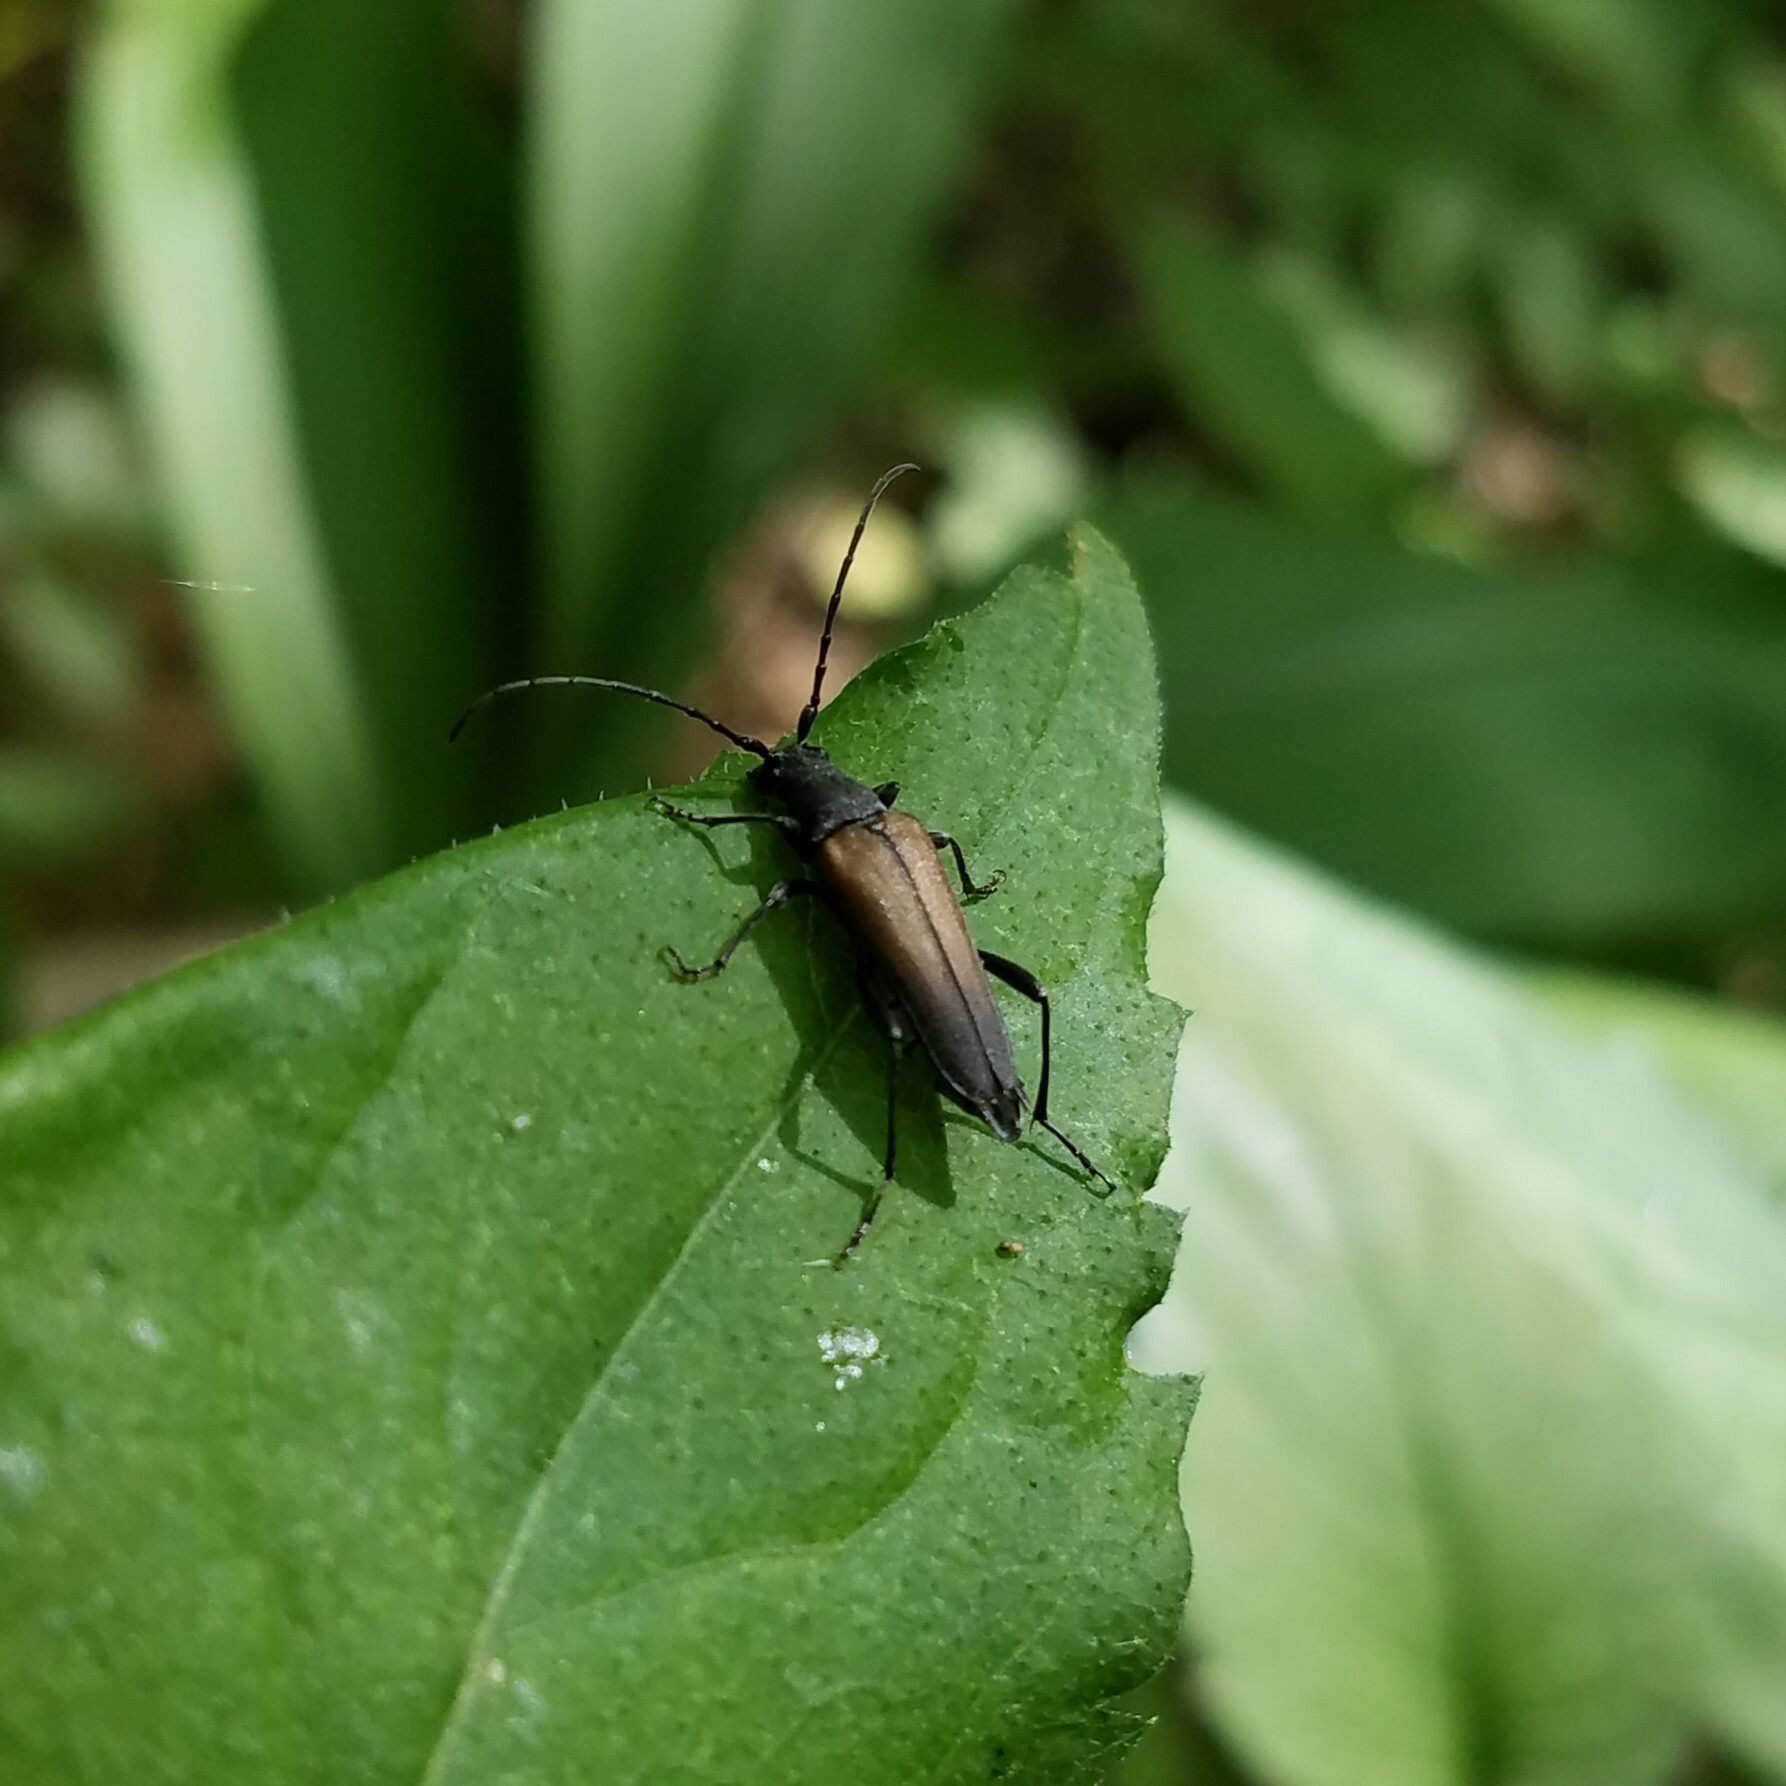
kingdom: Animalia
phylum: Arthropoda
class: Insecta
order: Coleoptera
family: Cerambycidae
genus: Trachysida
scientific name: Trachysida mutabilis
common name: Changeable flower longhorn
